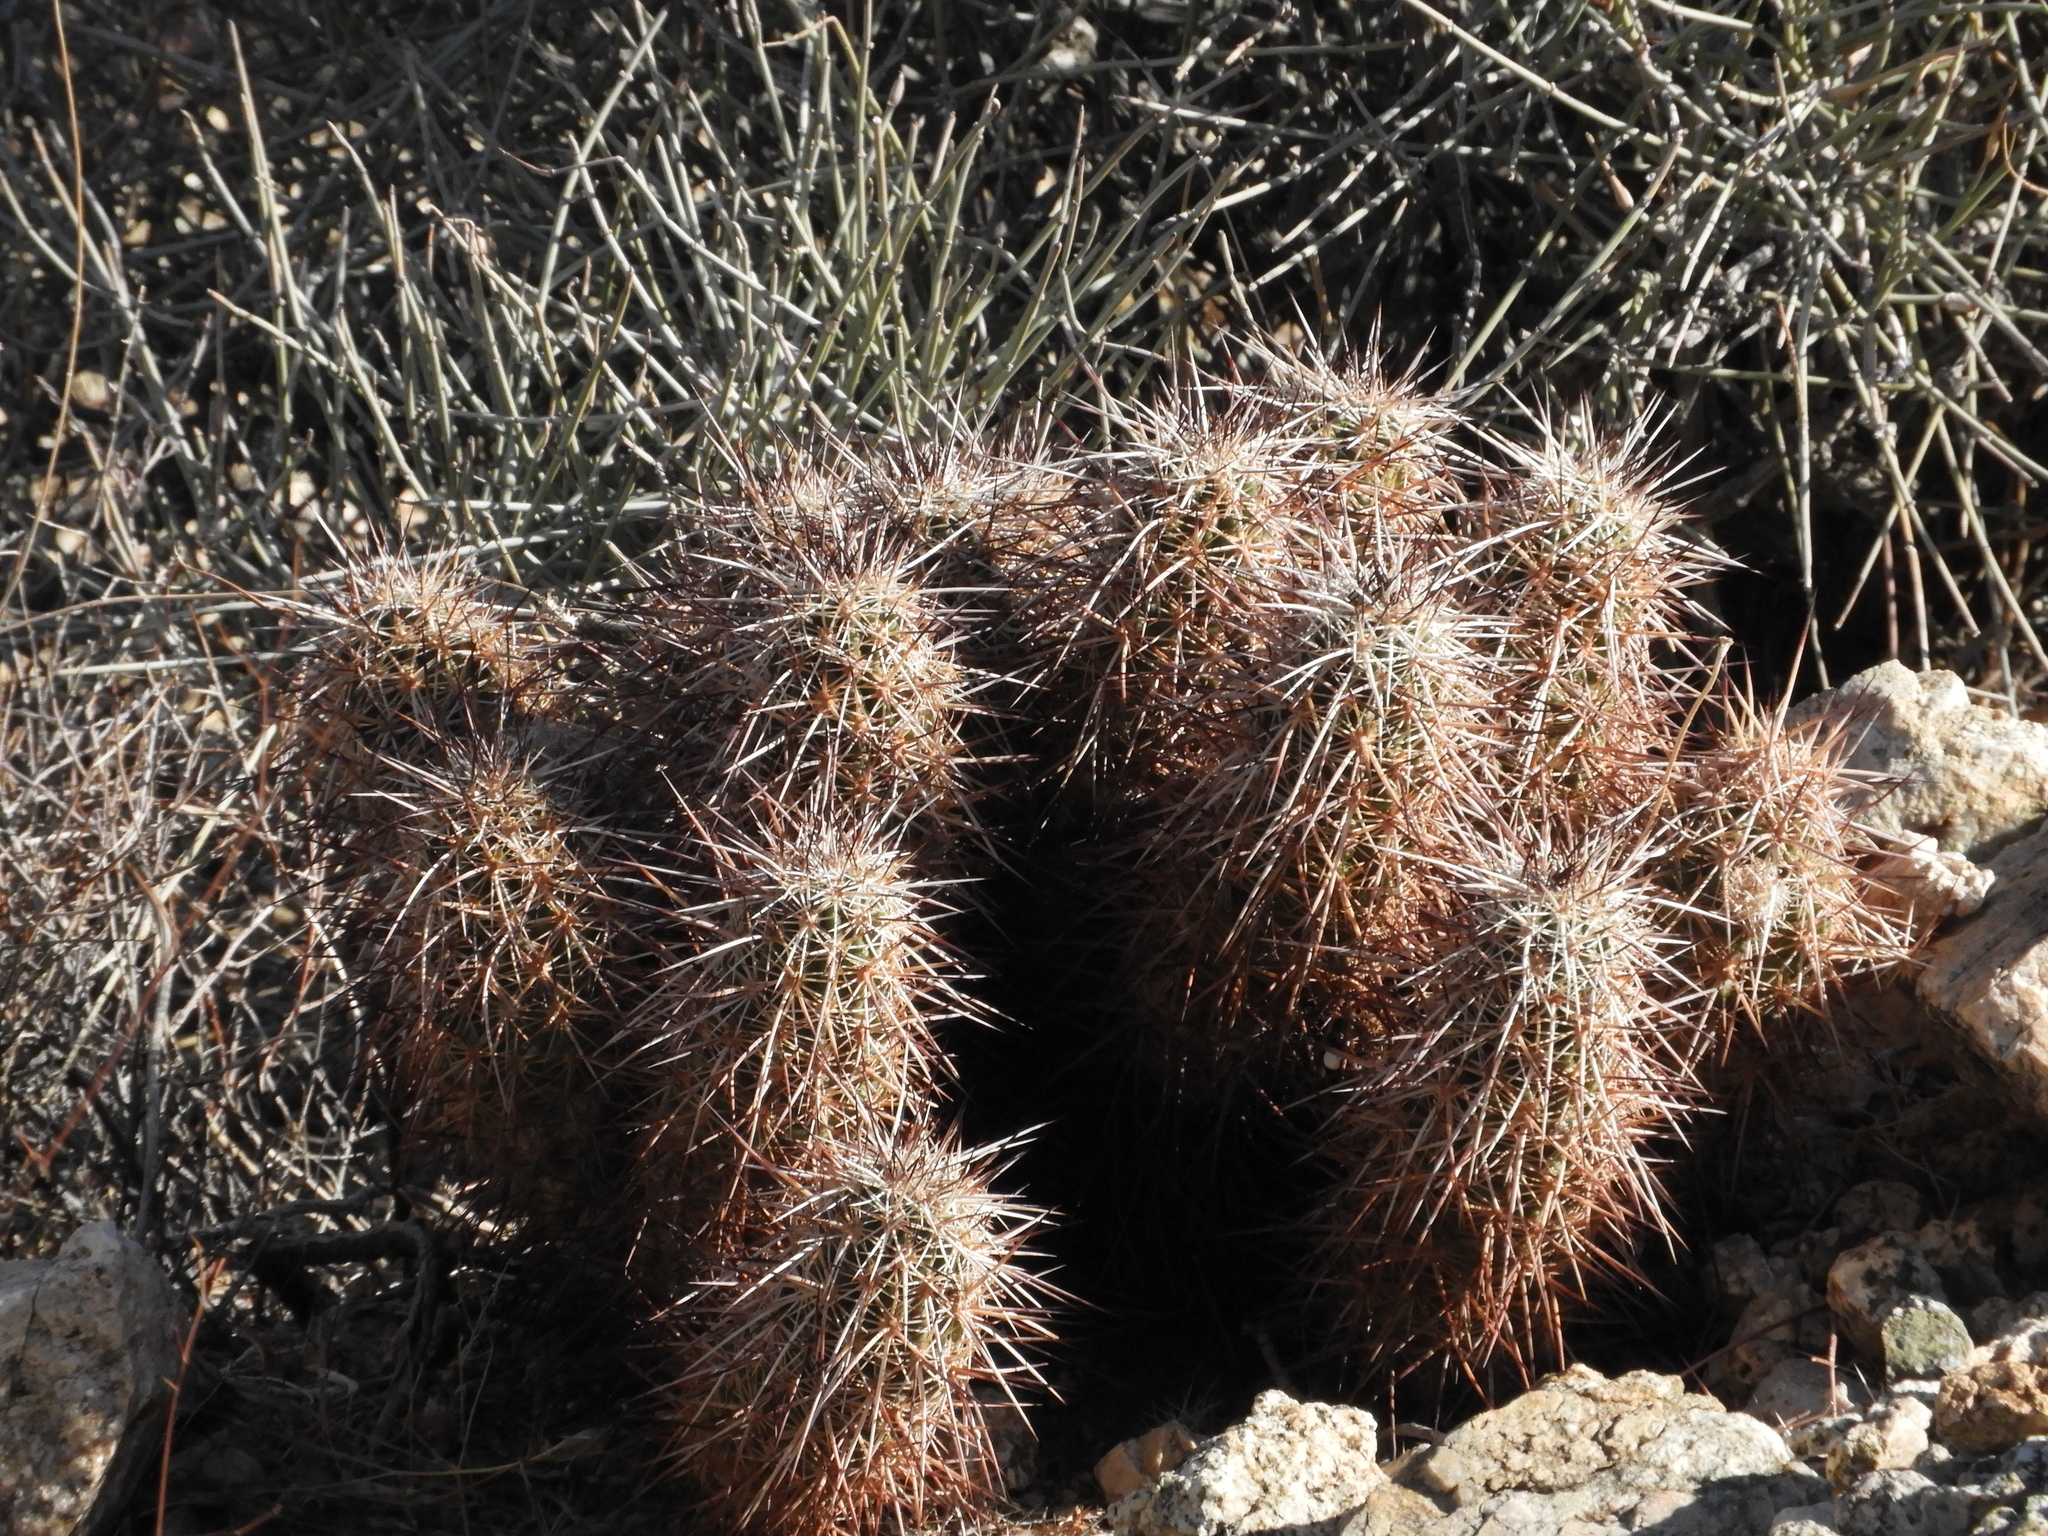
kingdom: Plantae
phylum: Tracheophyta
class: Magnoliopsida
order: Caryophyllales
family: Cactaceae
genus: Echinocereus
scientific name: Echinocereus engelmannii
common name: Engelmann's hedgehog cactus
